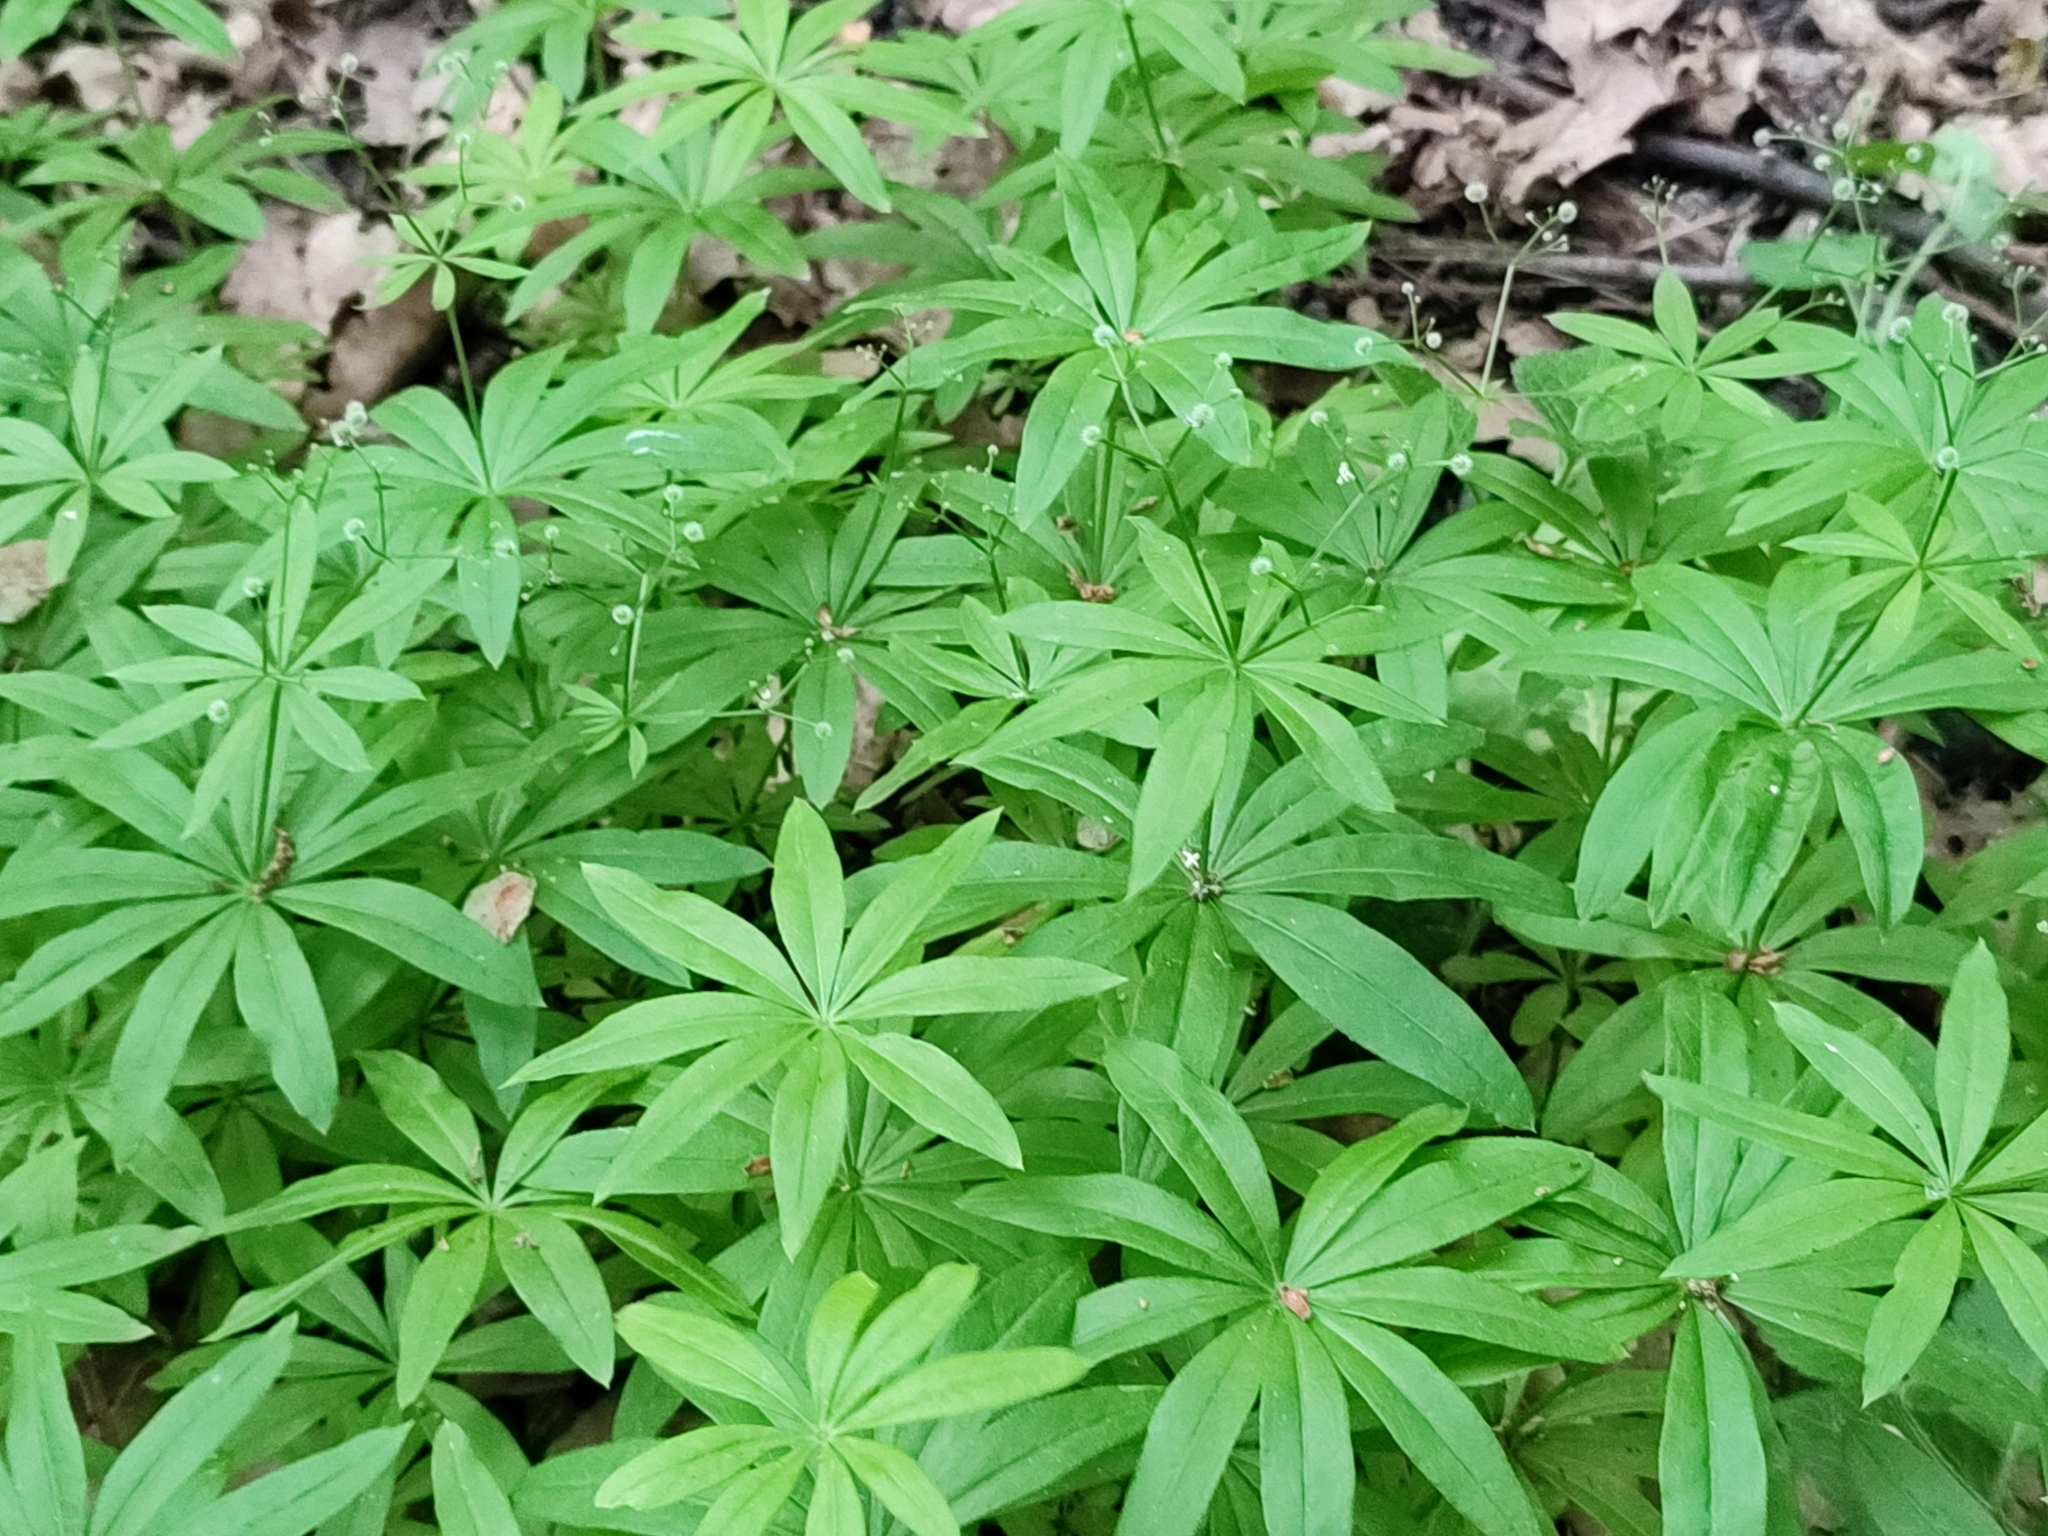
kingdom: Plantae
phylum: Tracheophyta
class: Magnoliopsida
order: Gentianales
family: Rubiaceae
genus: Galium
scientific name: Galium odoratum
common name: Sweet woodruff
